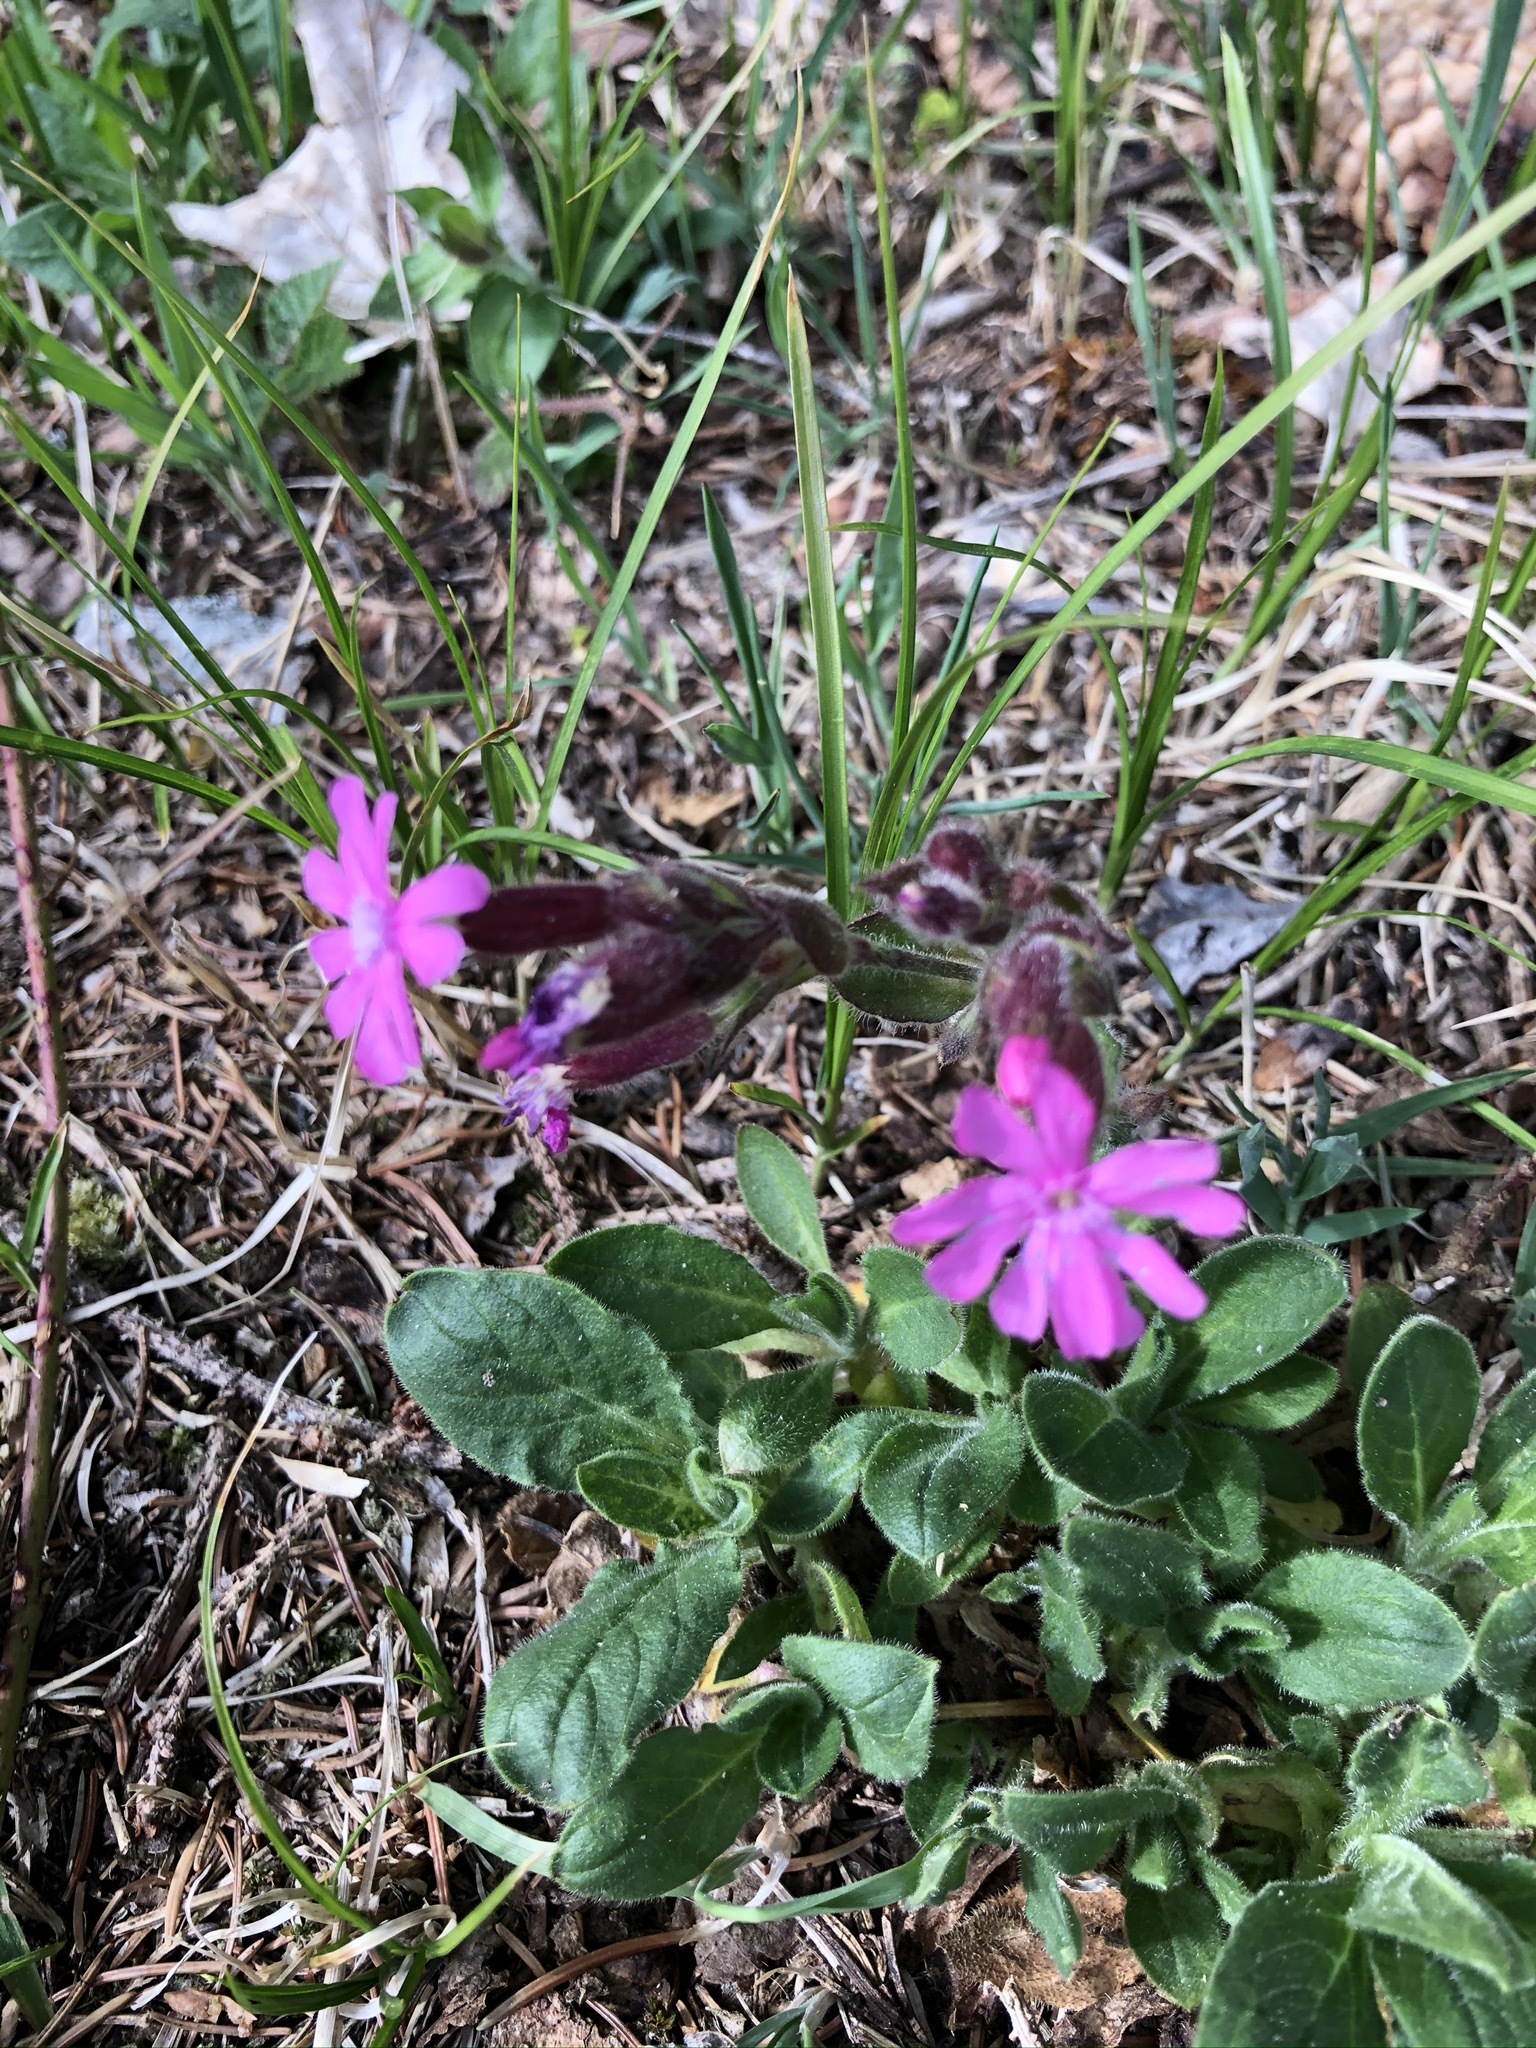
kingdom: Plantae
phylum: Tracheophyta
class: Magnoliopsida
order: Caryophyllales
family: Caryophyllaceae
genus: Silene
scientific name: Silene dioica
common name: Red campion
